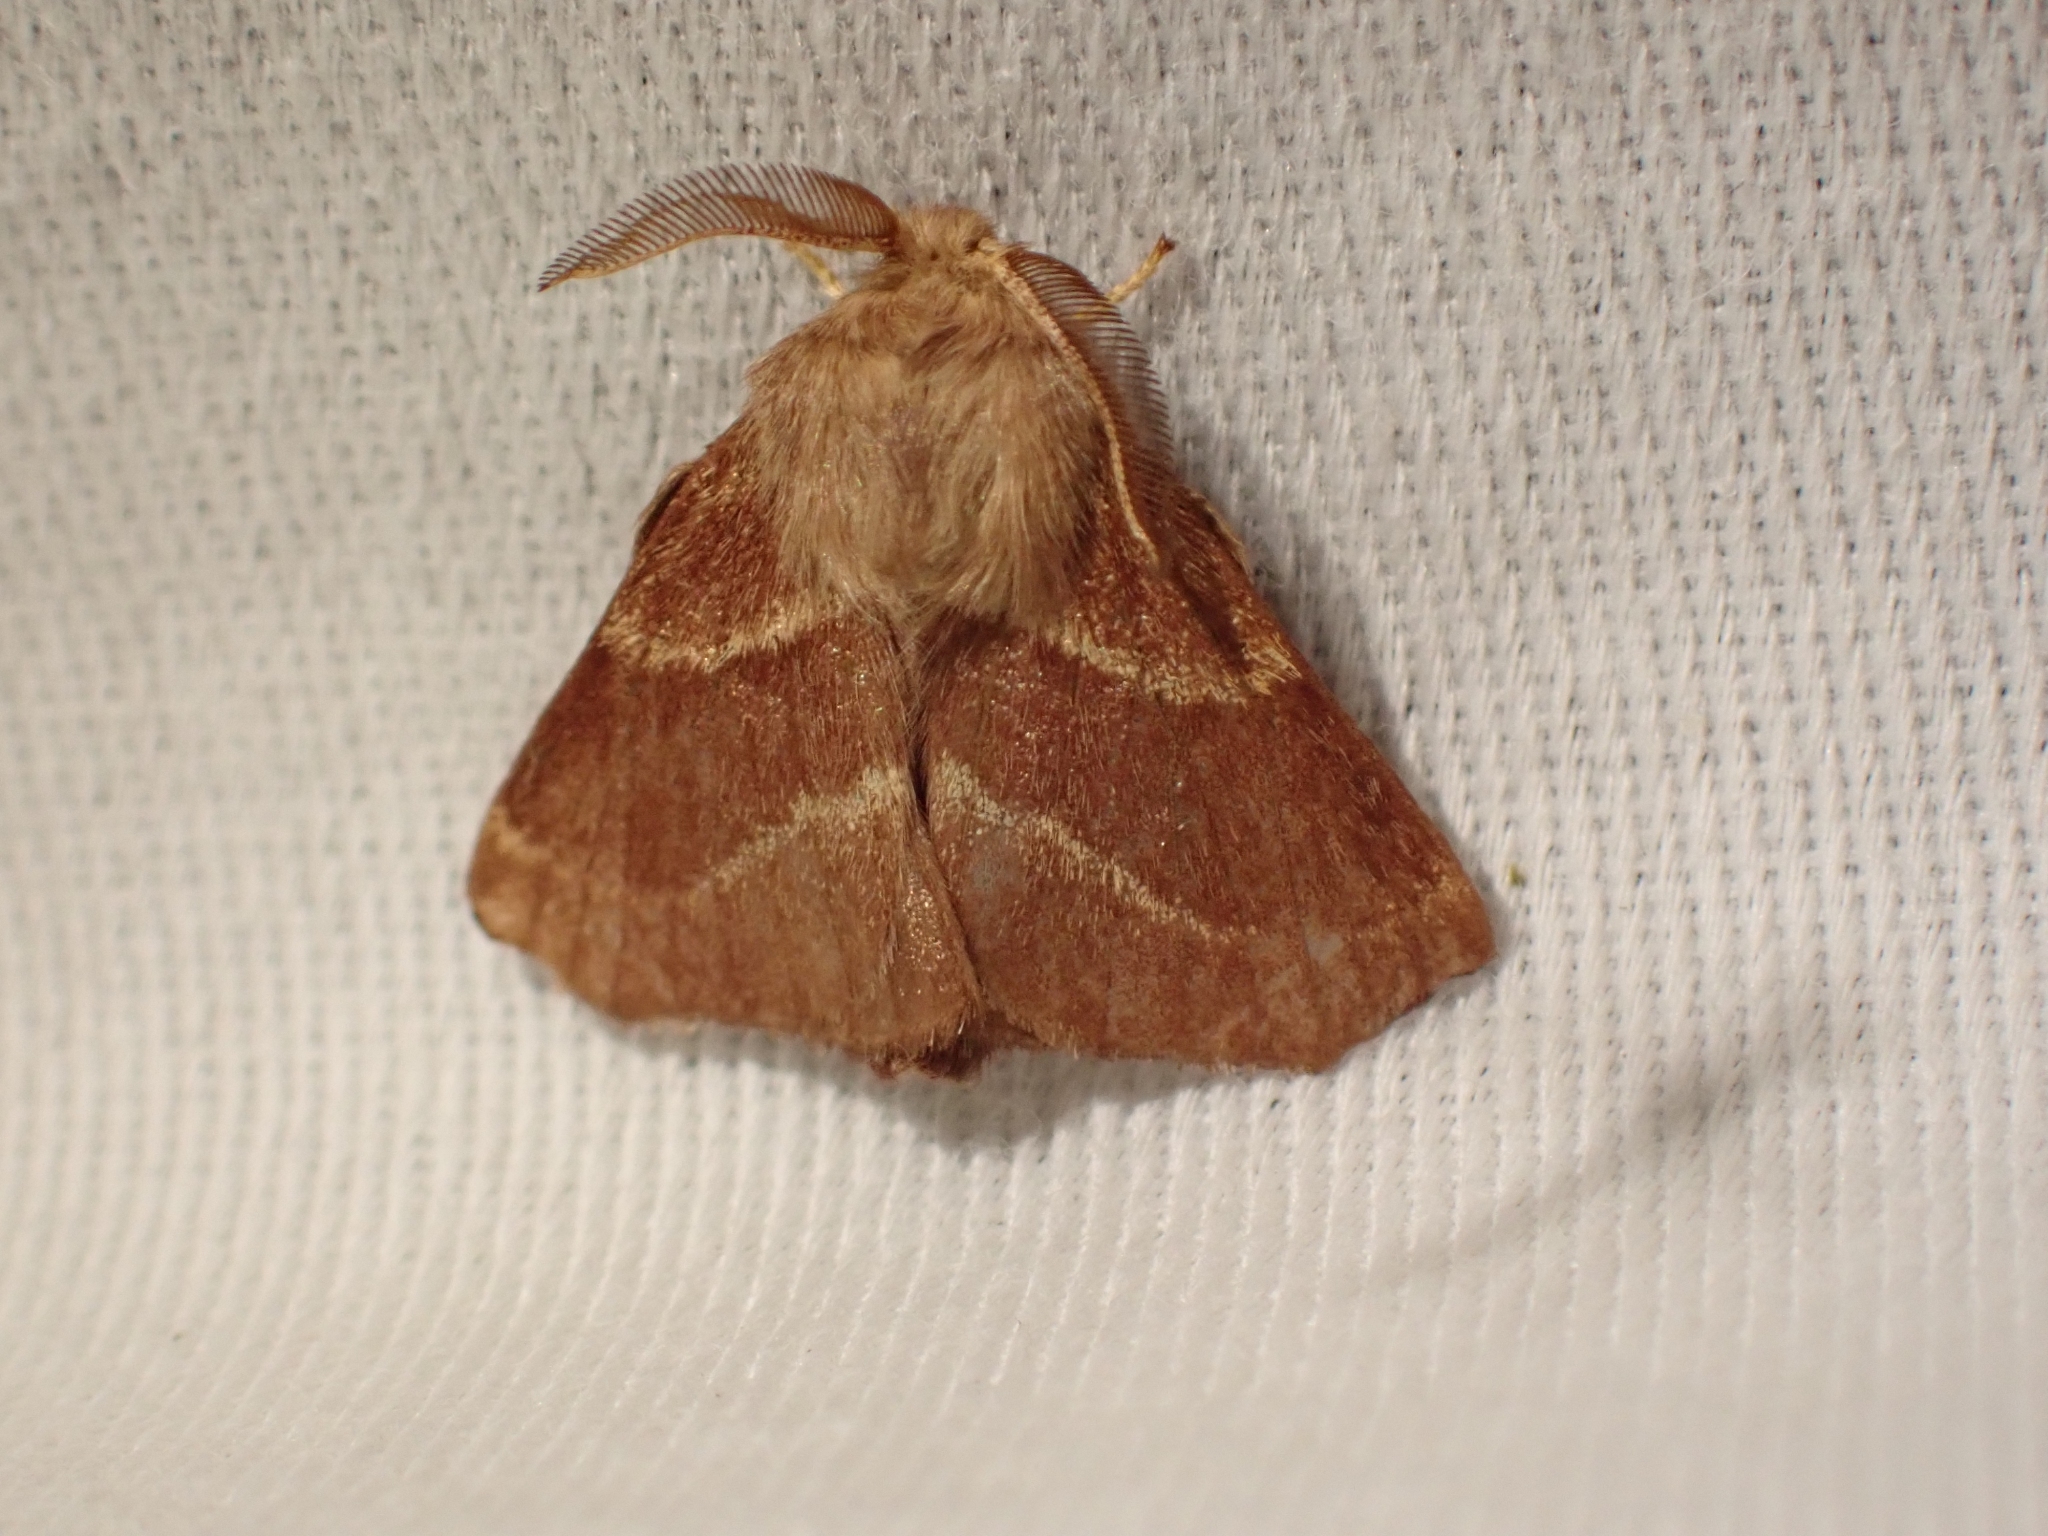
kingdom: Animalia
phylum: Arthropoda
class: Insecta
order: Lepidoptera
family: Lasiocampidae
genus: Malacosoma
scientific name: Malacosoma californica
